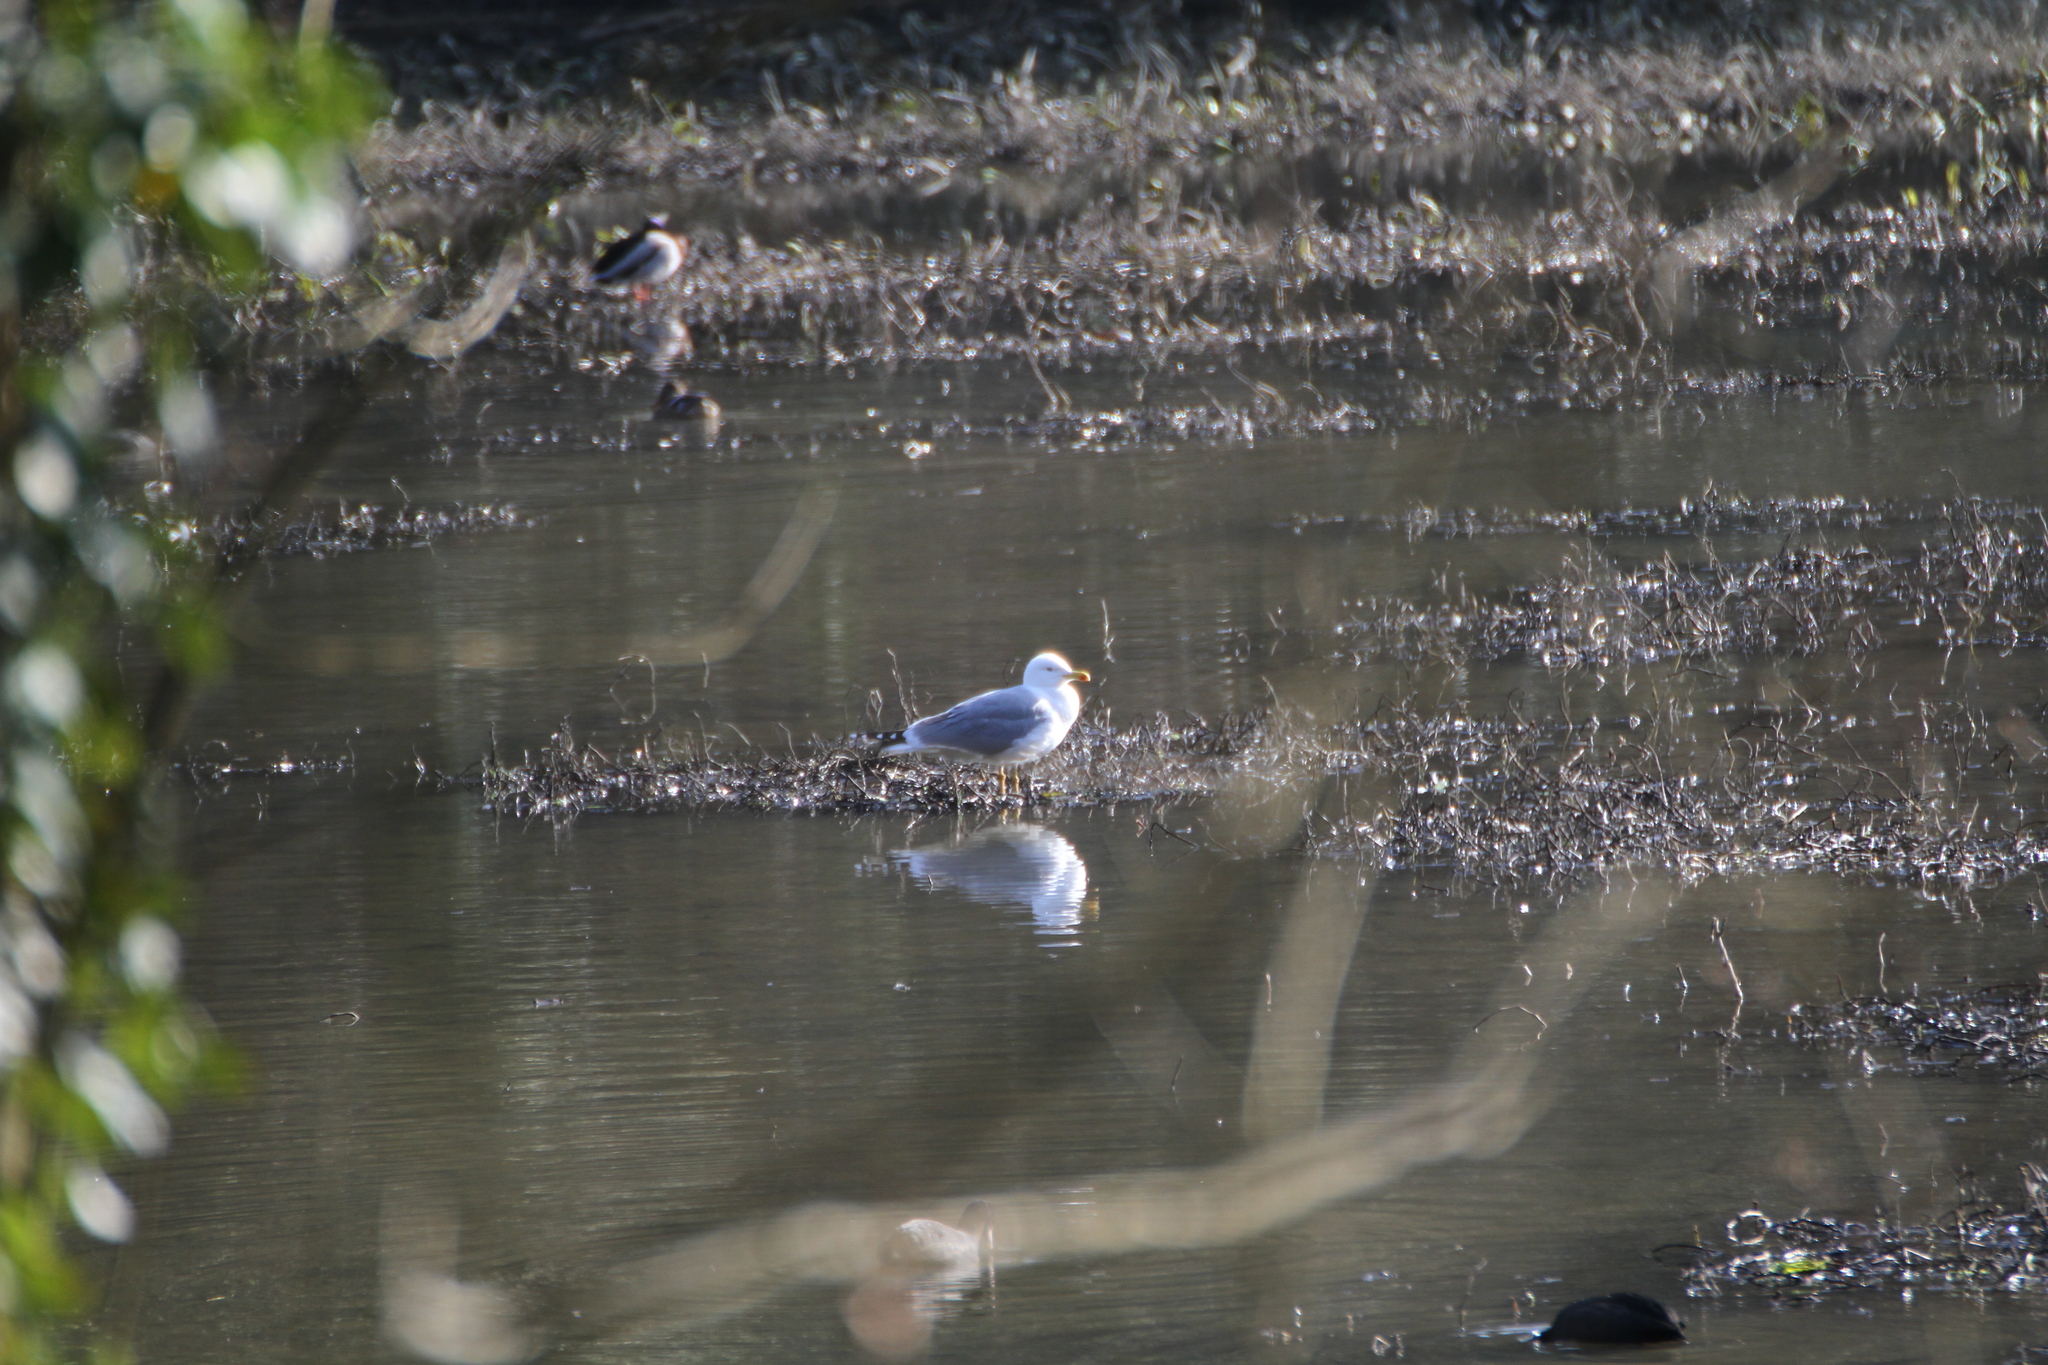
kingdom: Animalia
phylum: Chordata
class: Aves
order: Charadriiformes
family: Laridae
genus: Larus
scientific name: Larus michahellis
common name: Yellow-legged gull
